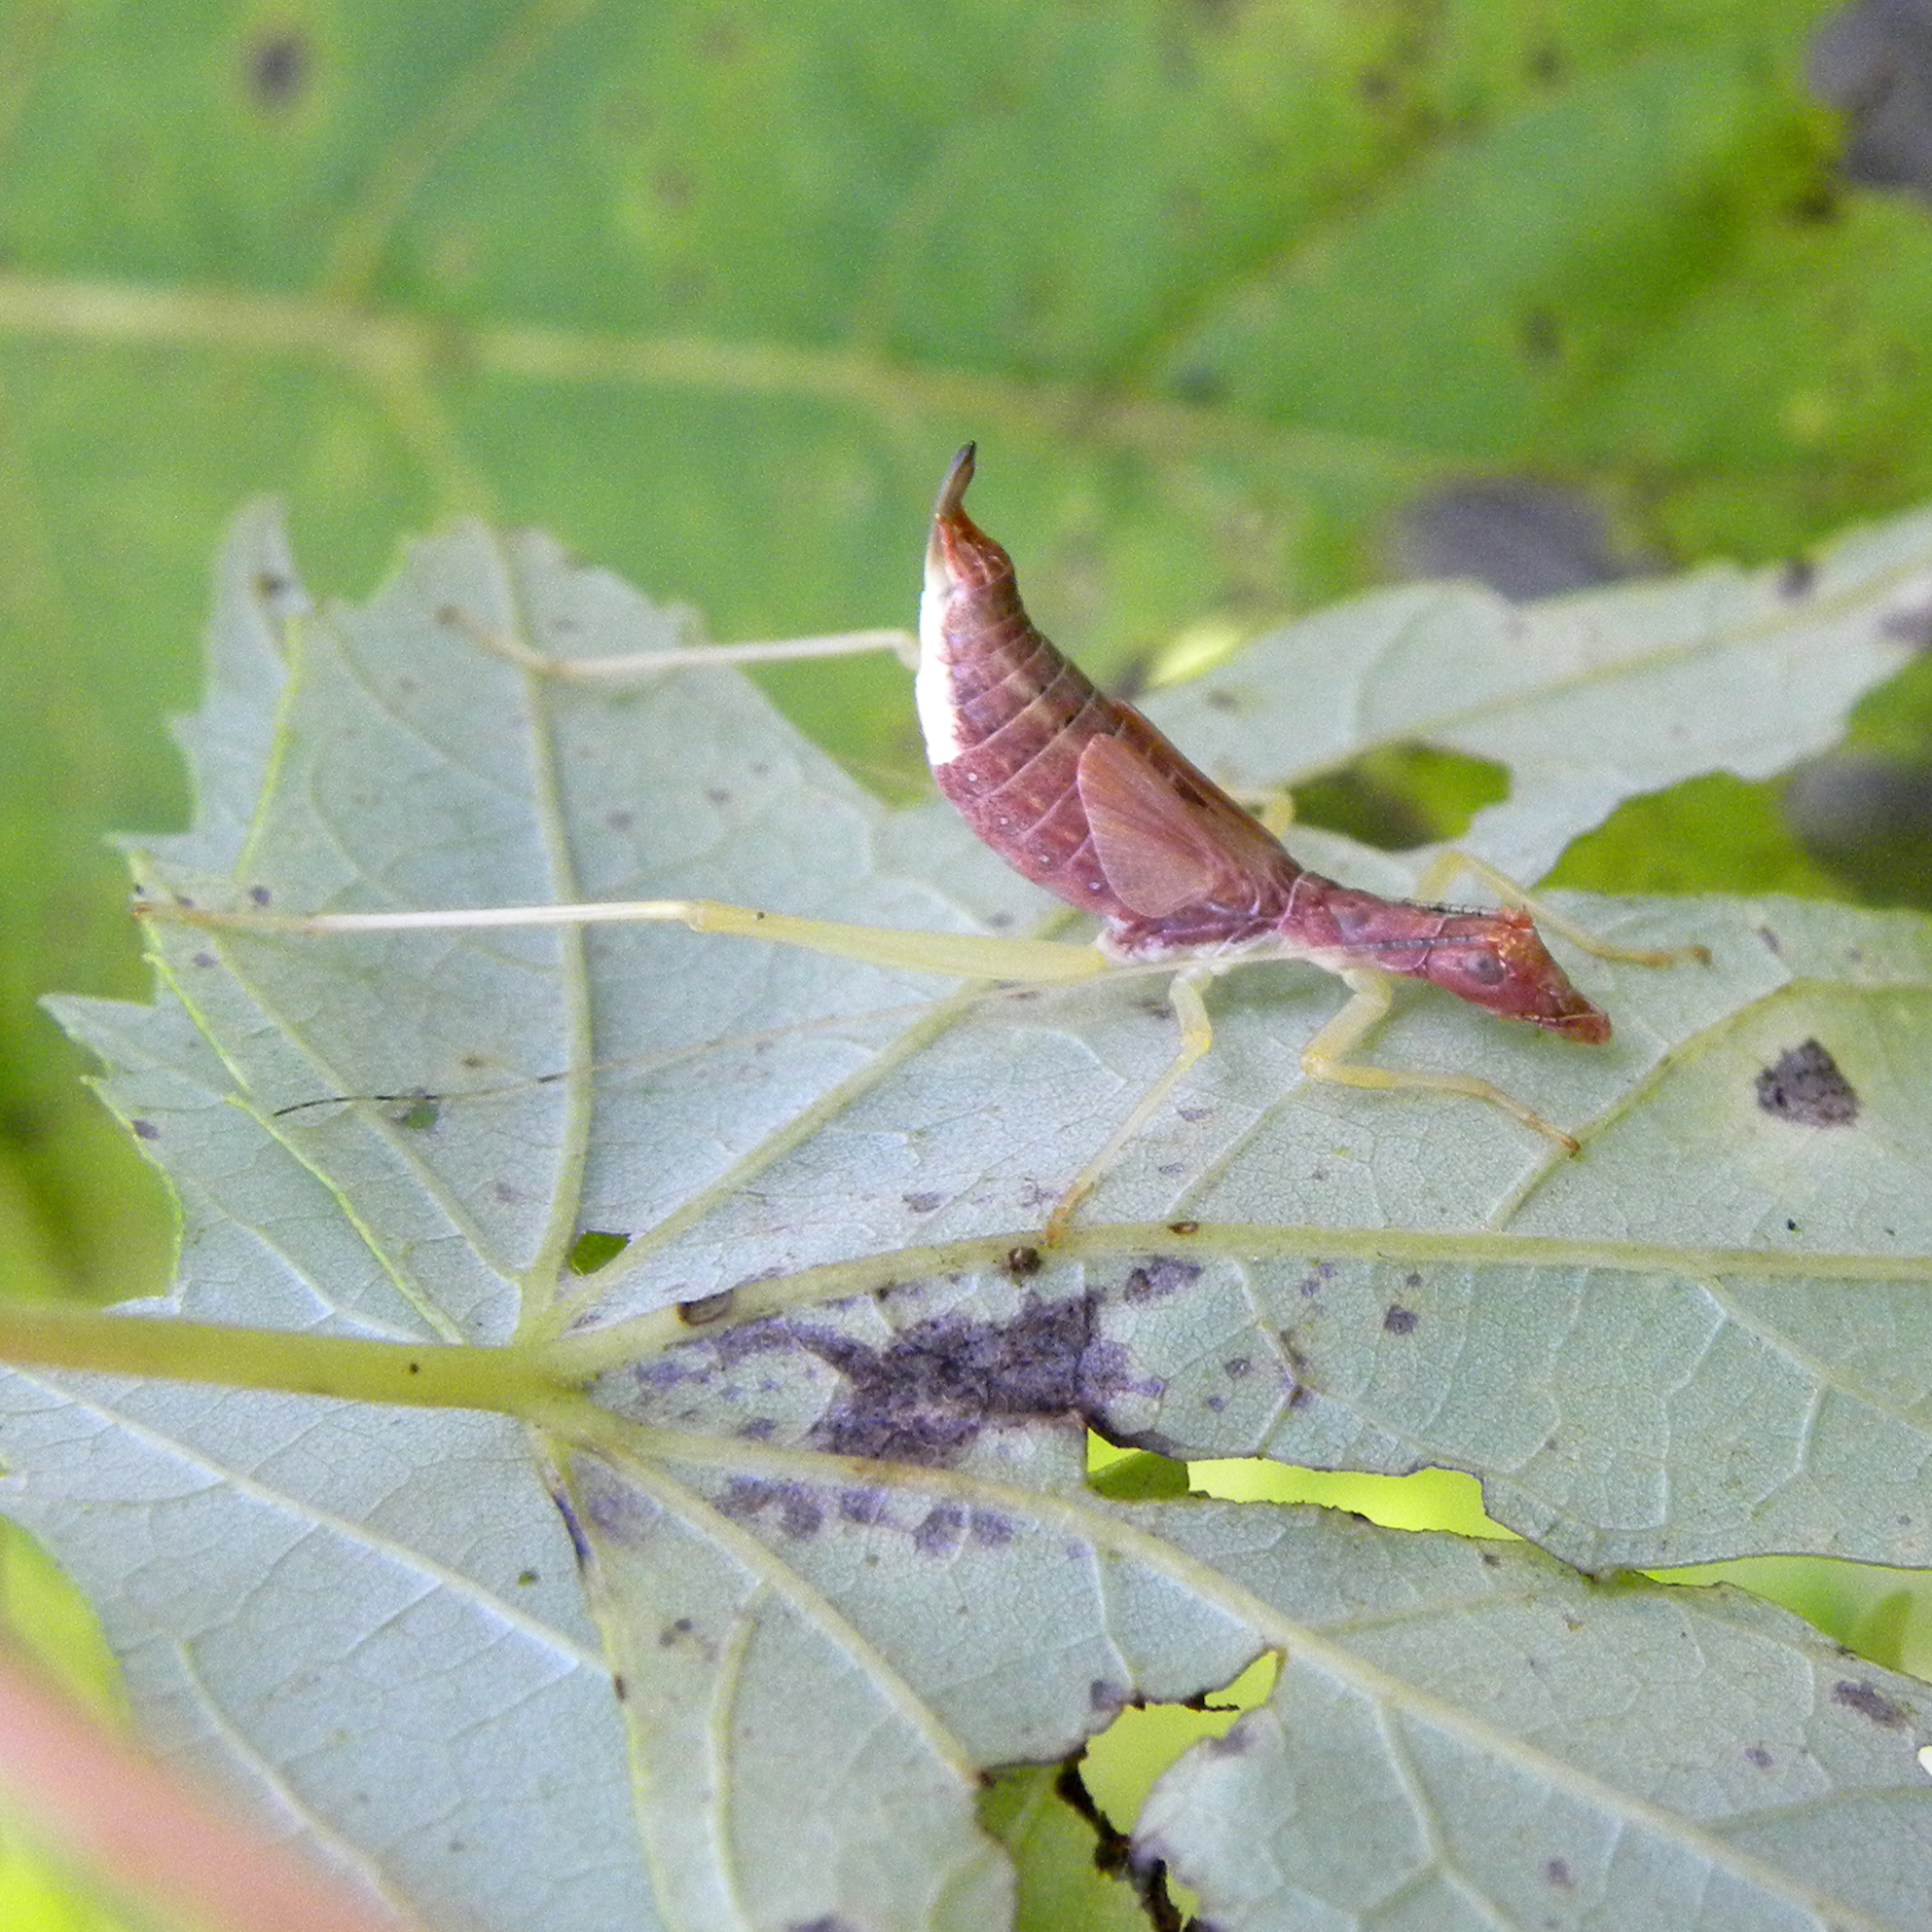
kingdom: Animalia
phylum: Arthropoda
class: Insecta
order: Orthoptera
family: Gryllidae
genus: Neoxabea
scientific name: Neoxabea bipunctata
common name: Two-spotted tree cricket
